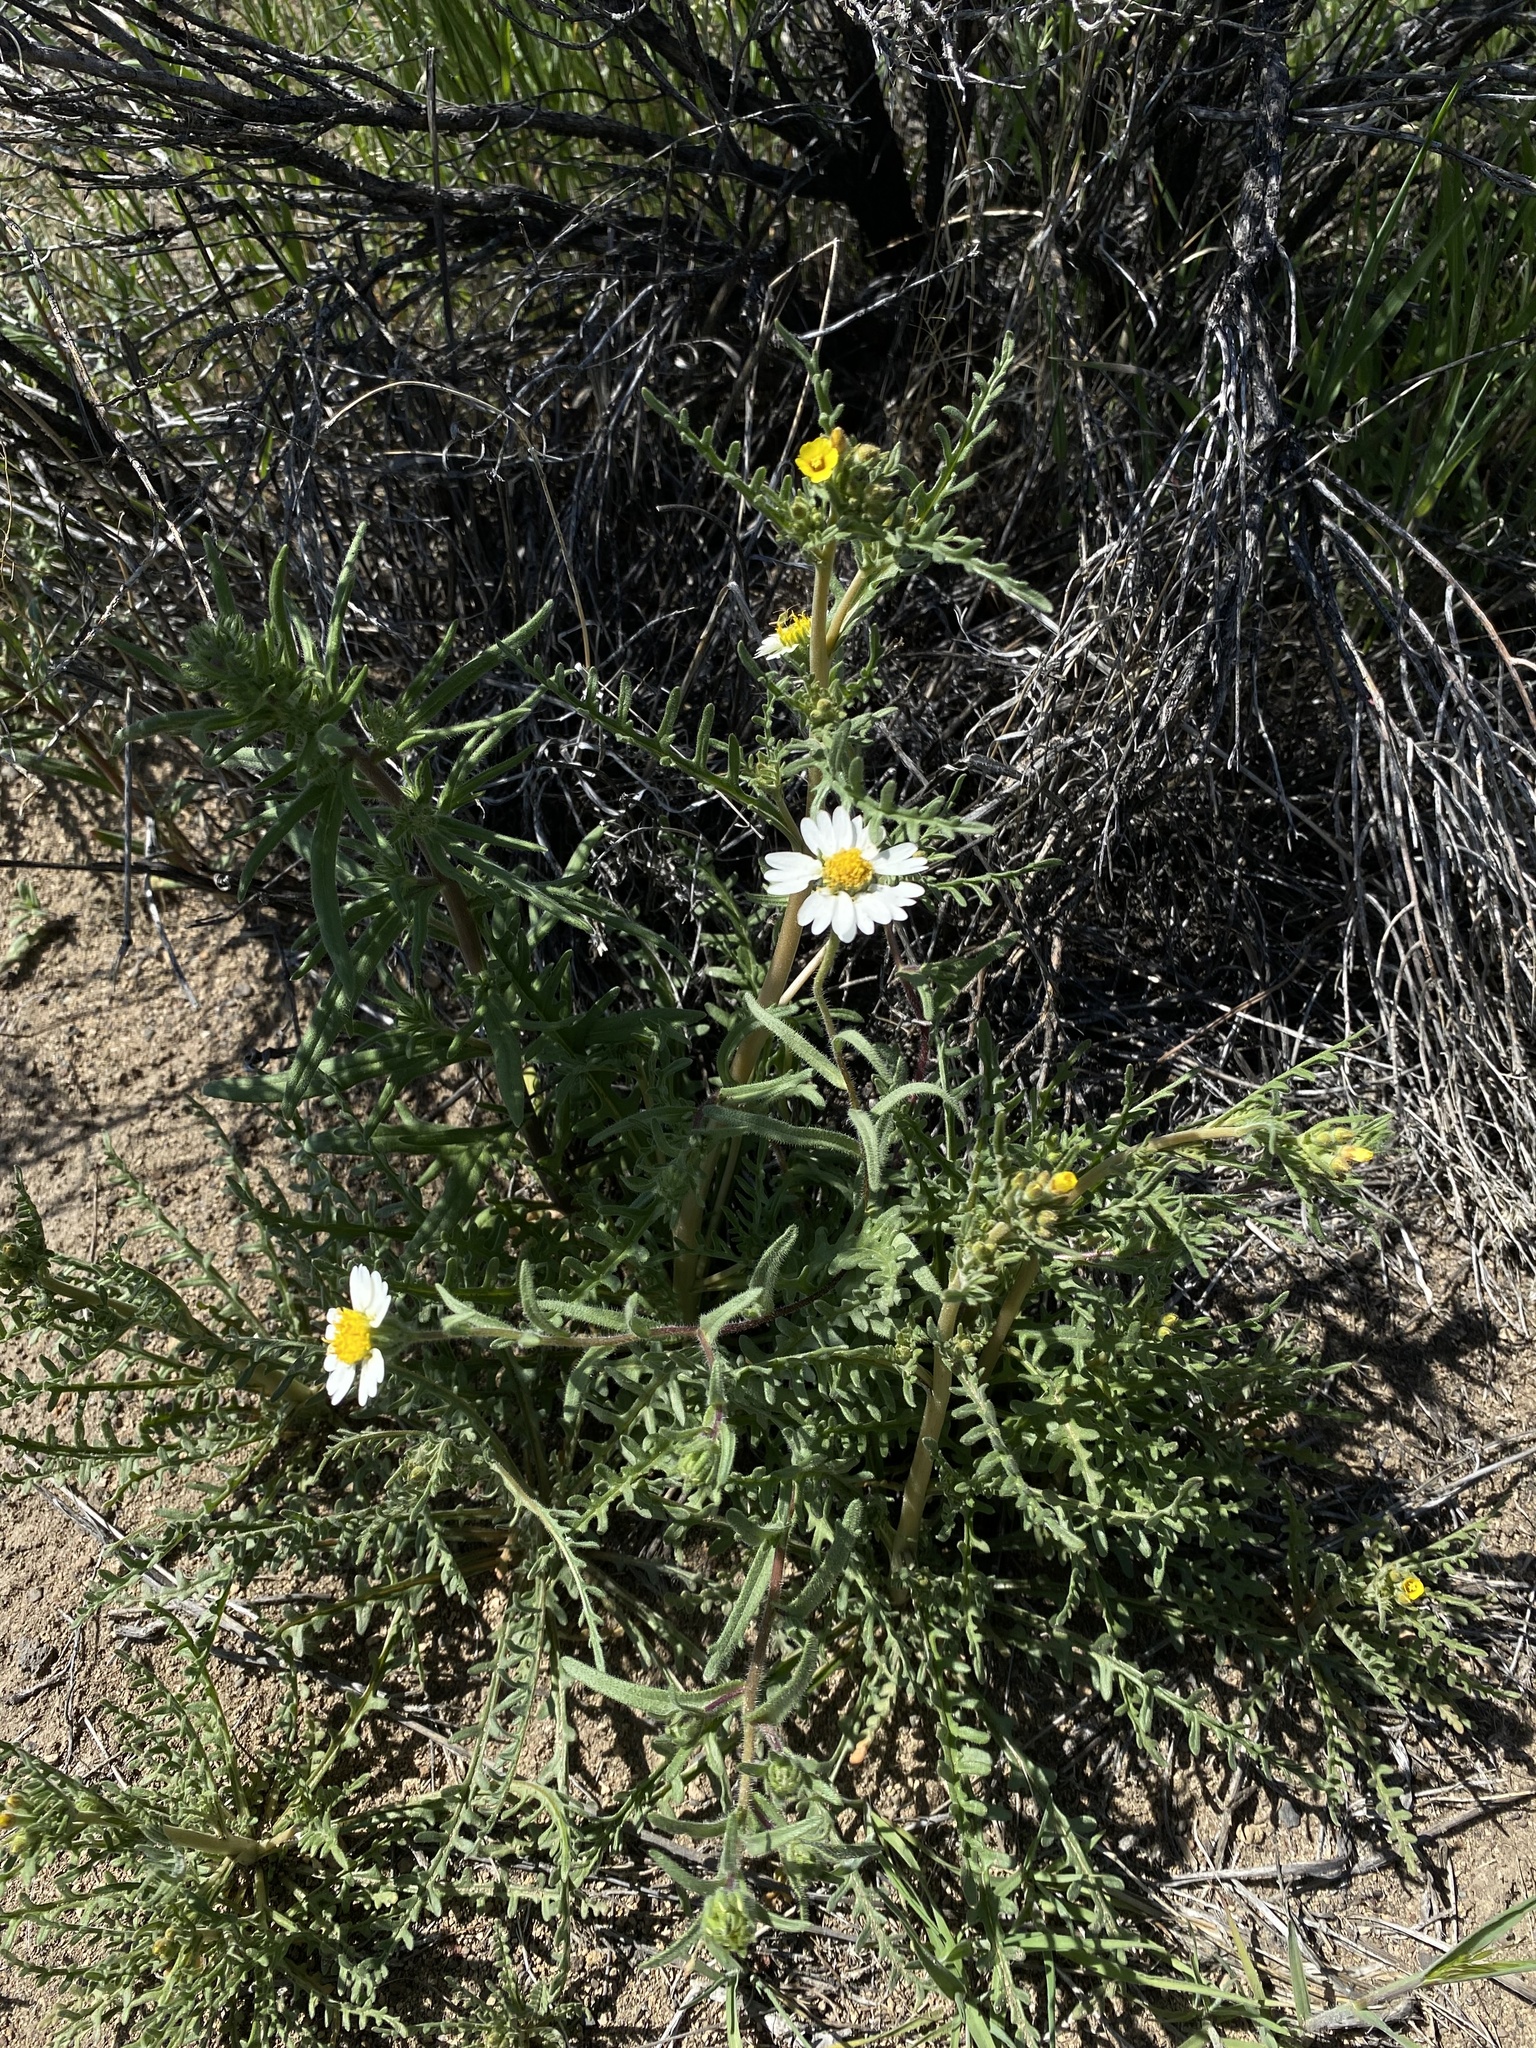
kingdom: Plantae
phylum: Tracheophyta
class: Magnoliopsida
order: Asterales
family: Asteraceae
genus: Layia
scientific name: Layia glandulosa
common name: White layia
